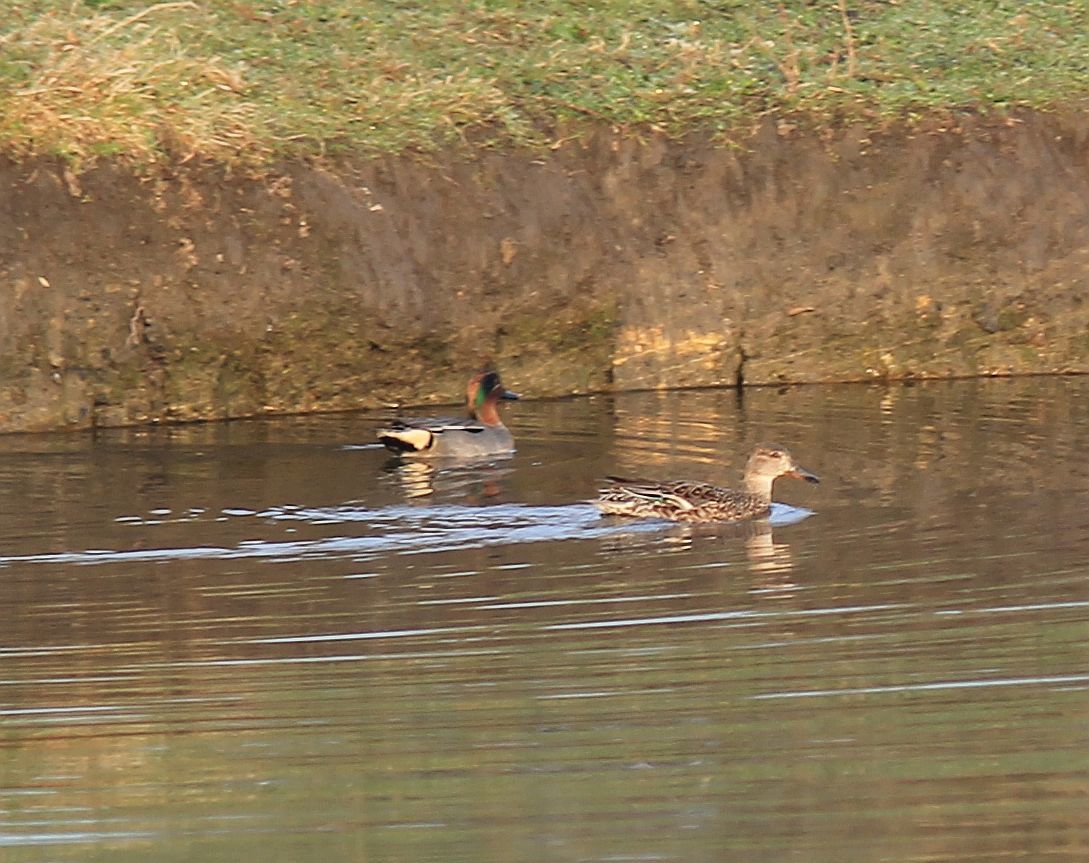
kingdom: Animalia
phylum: Chordata
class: Aves
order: Anseriformes
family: Anatidae
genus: Anas
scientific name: Anas crecca
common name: Eurasian teal
